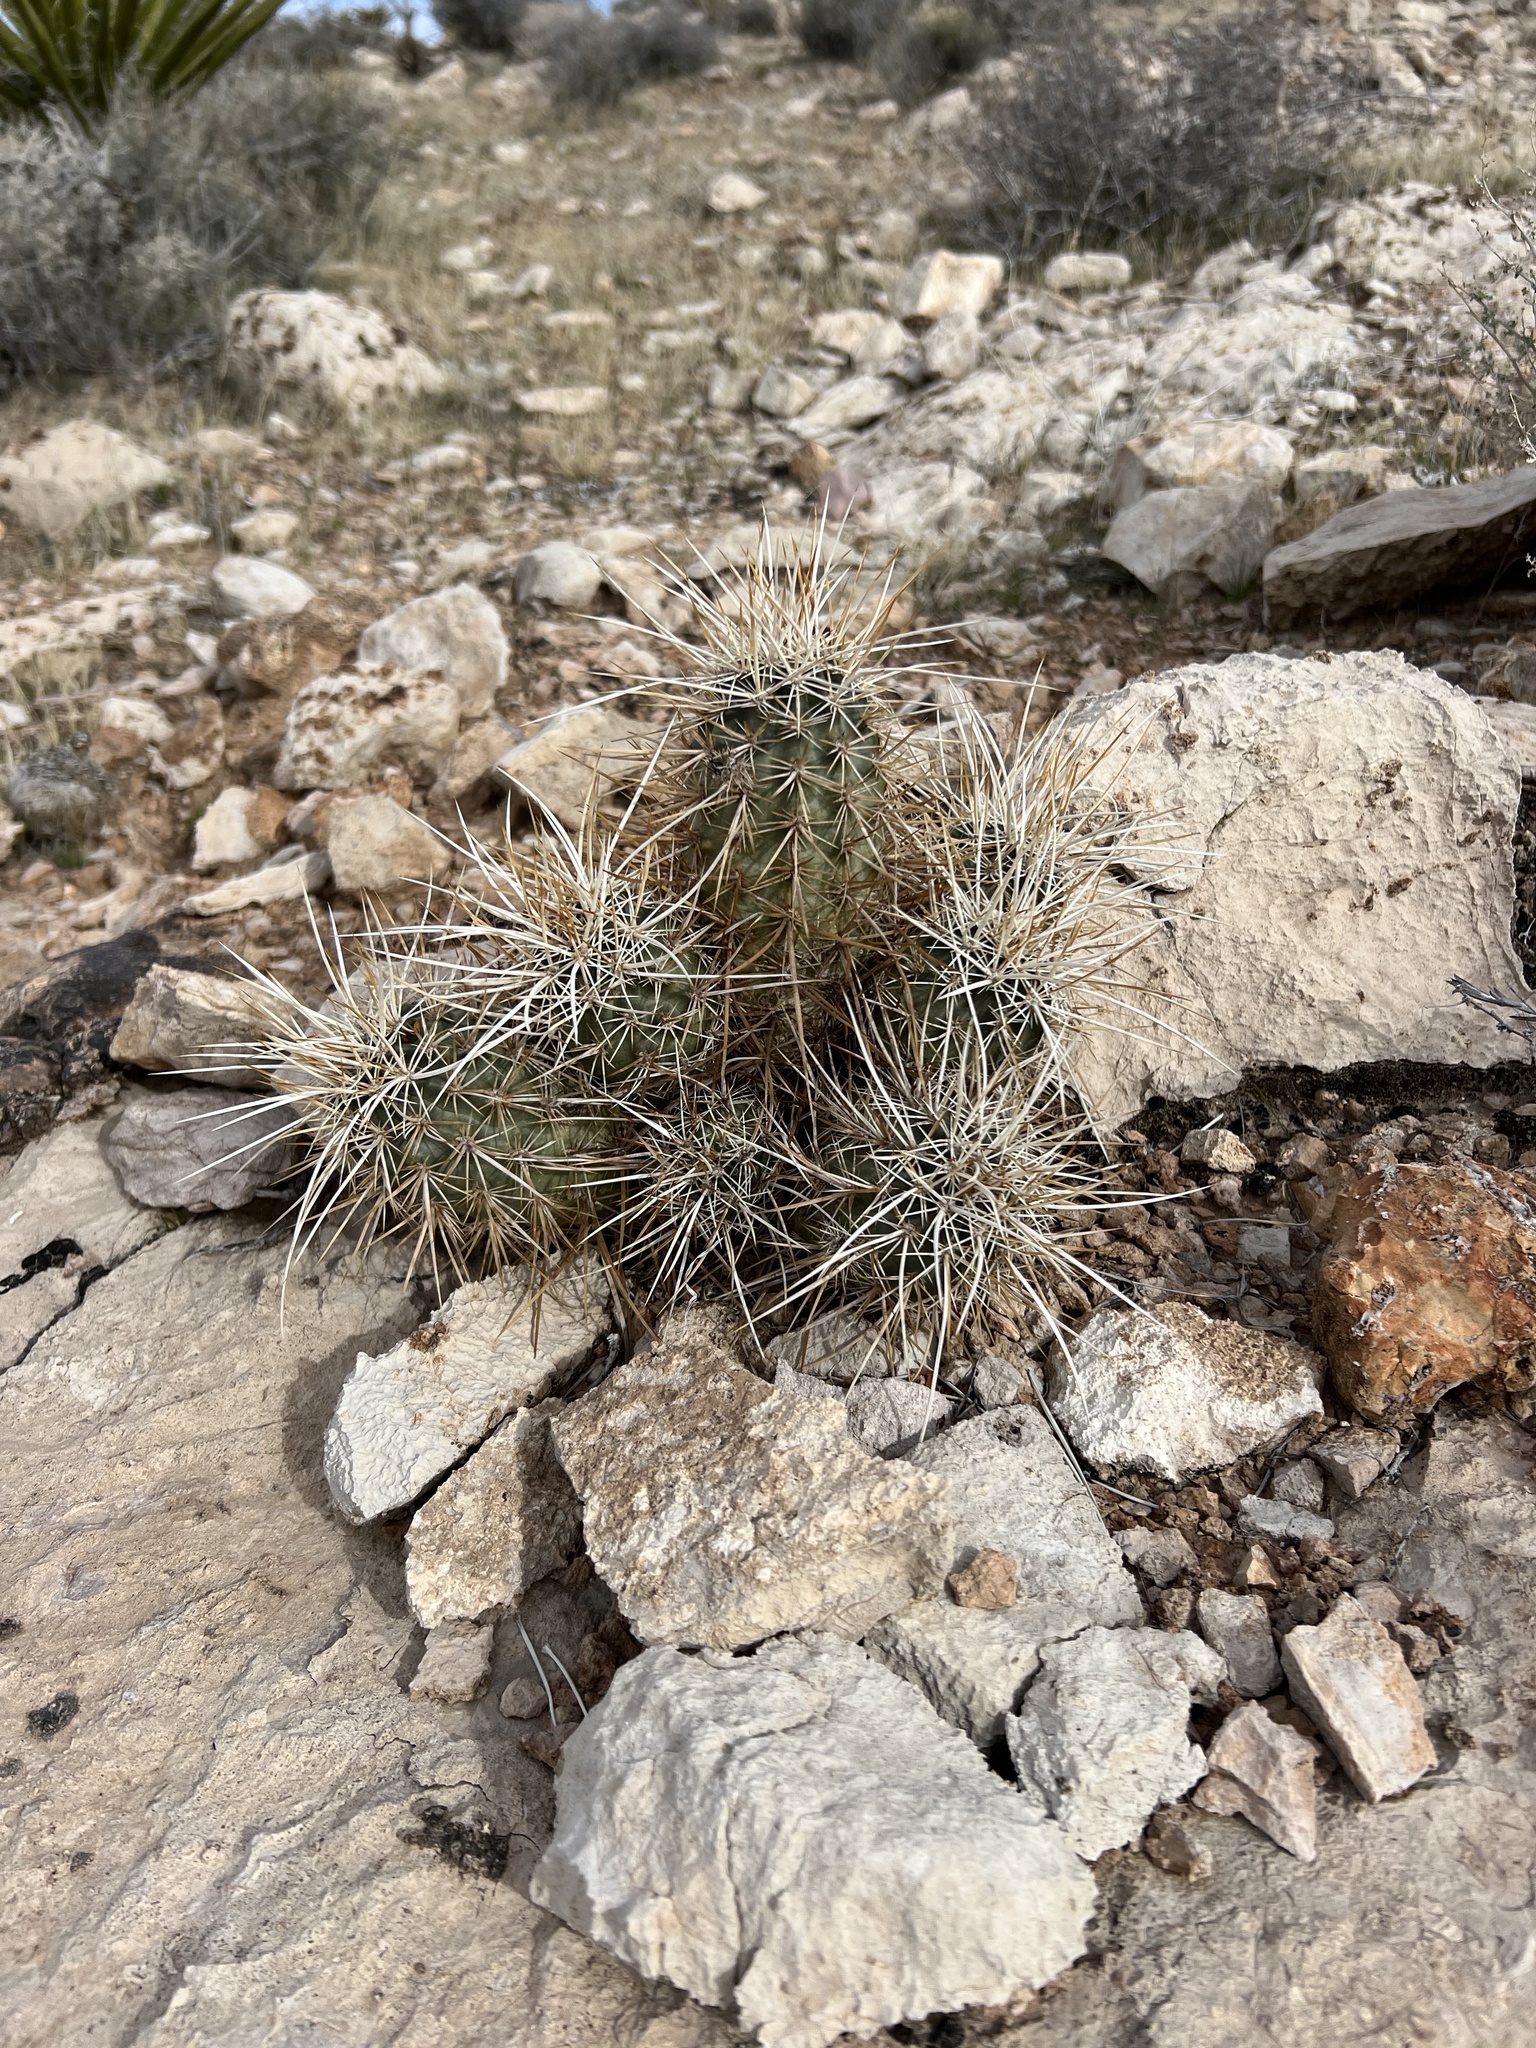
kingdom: Plantae
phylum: Tracheophyta
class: Magnoliopsida
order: Caryophyllales
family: Cactaceae
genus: Echinocereus
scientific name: Echinocereus engelmannii
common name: Engelmann's hedgehog cactus
